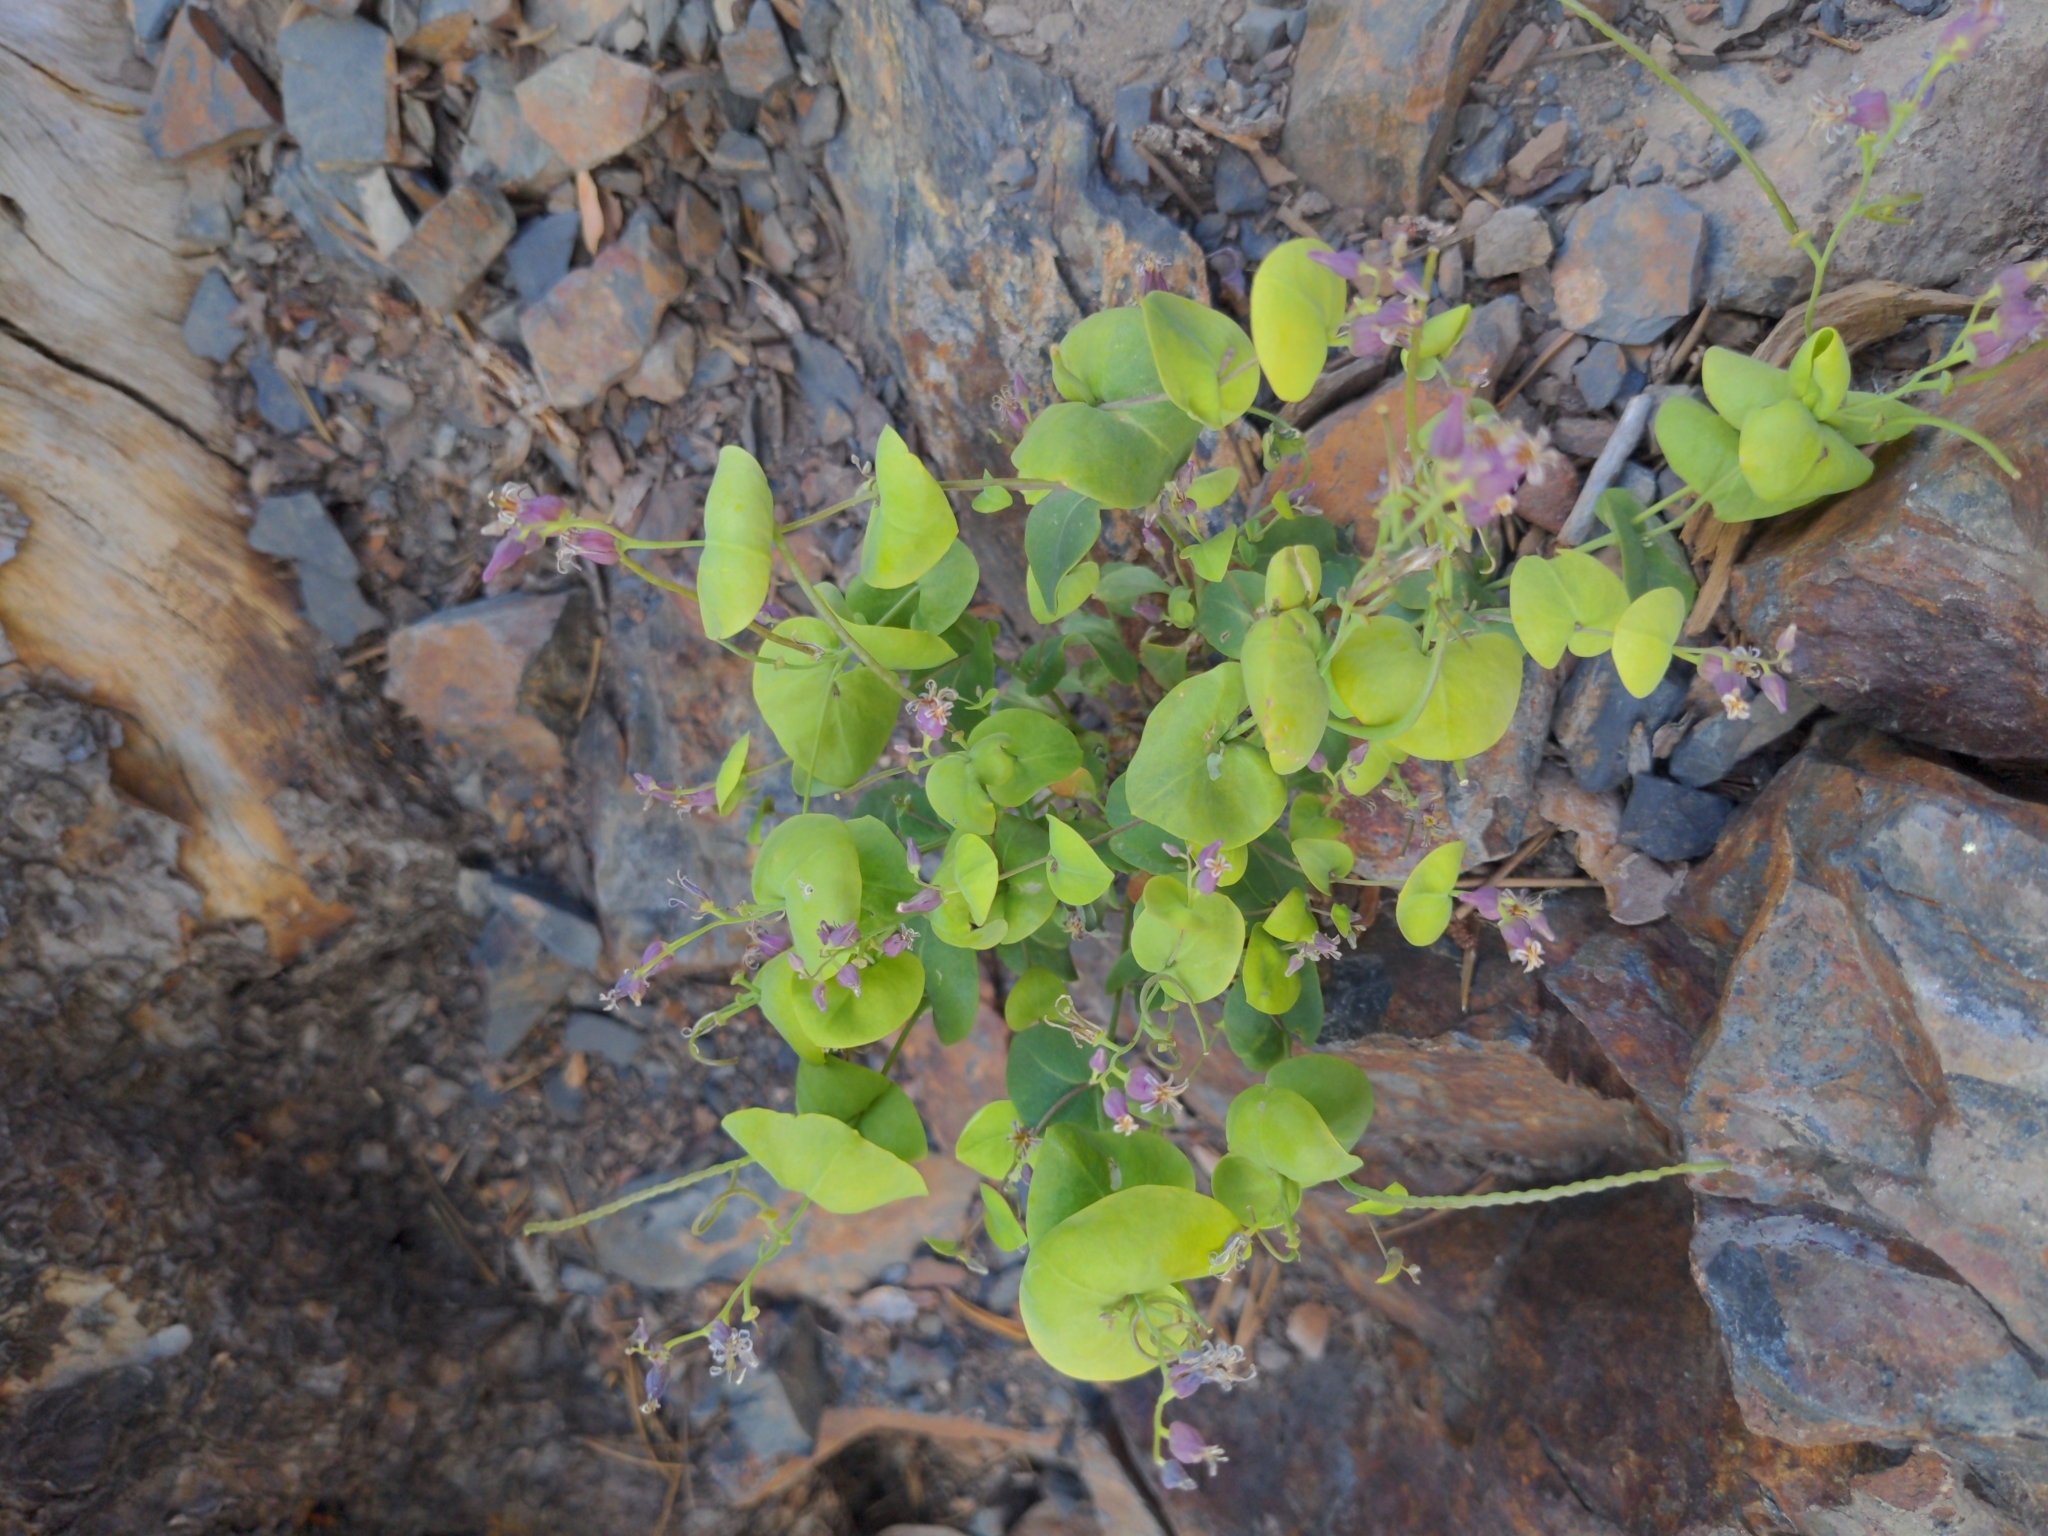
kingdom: Plantae
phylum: Tracheophyta
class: Magnoliopsida
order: Brassicales
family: Brassicaceae
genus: Streptanthus
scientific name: Streptanthus tortuosus
